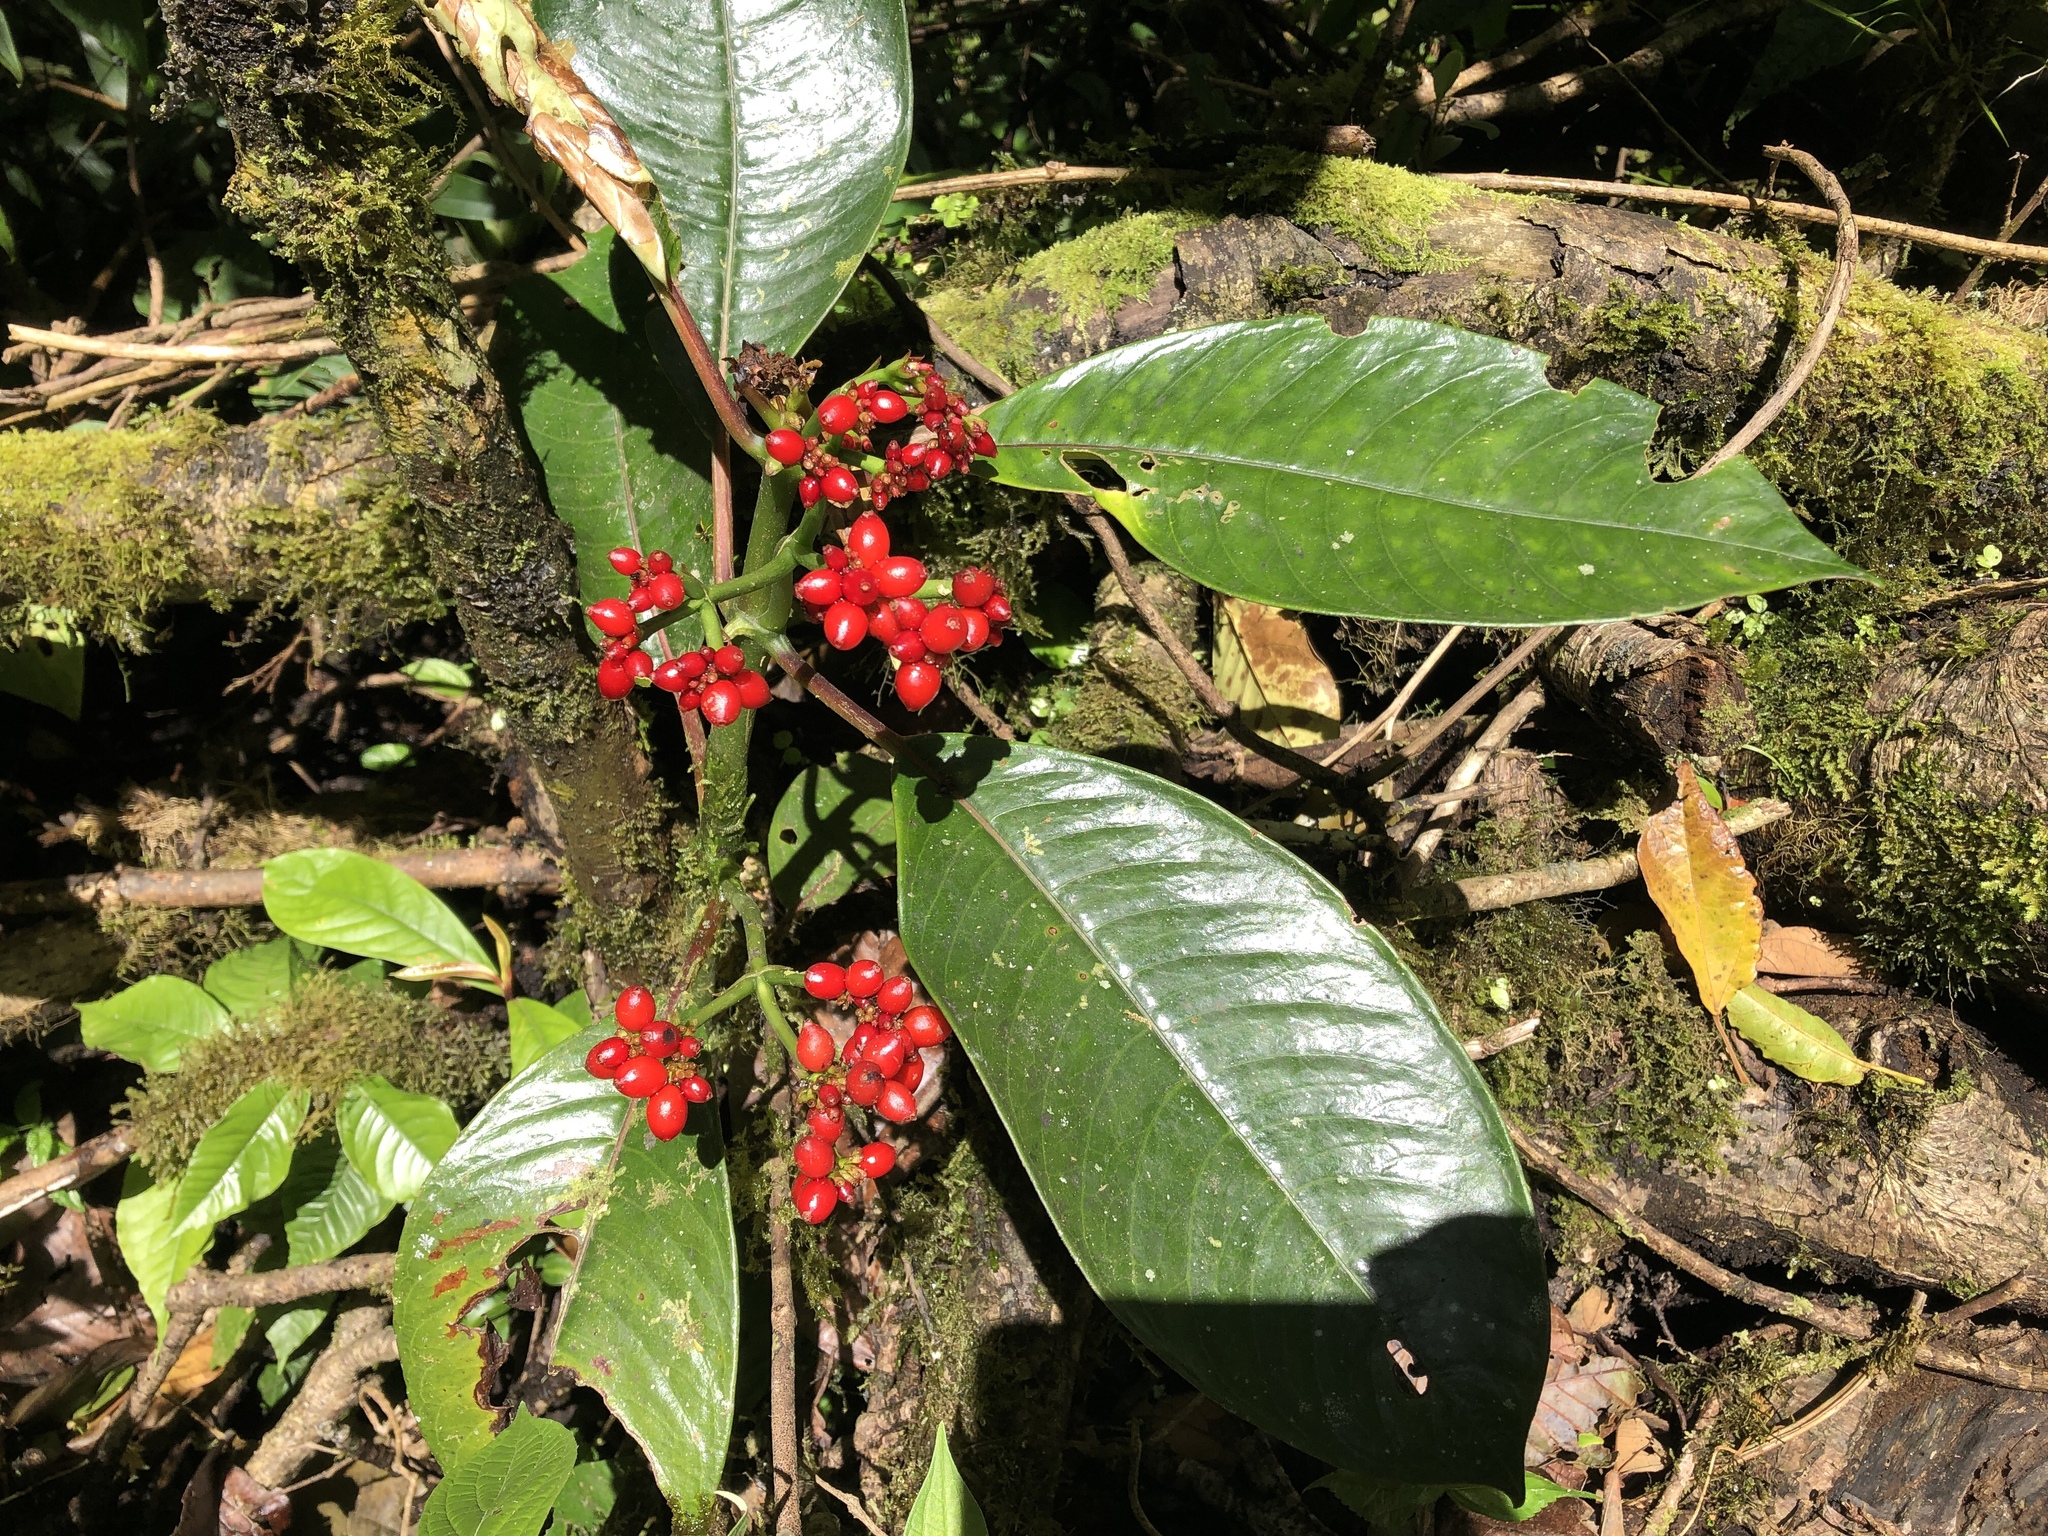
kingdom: Plantae
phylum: Tracheophyta
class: Magnoliopsida
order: Gentianales
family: Rubiaceae
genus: Notopleura
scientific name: Notopleura uliginosa
